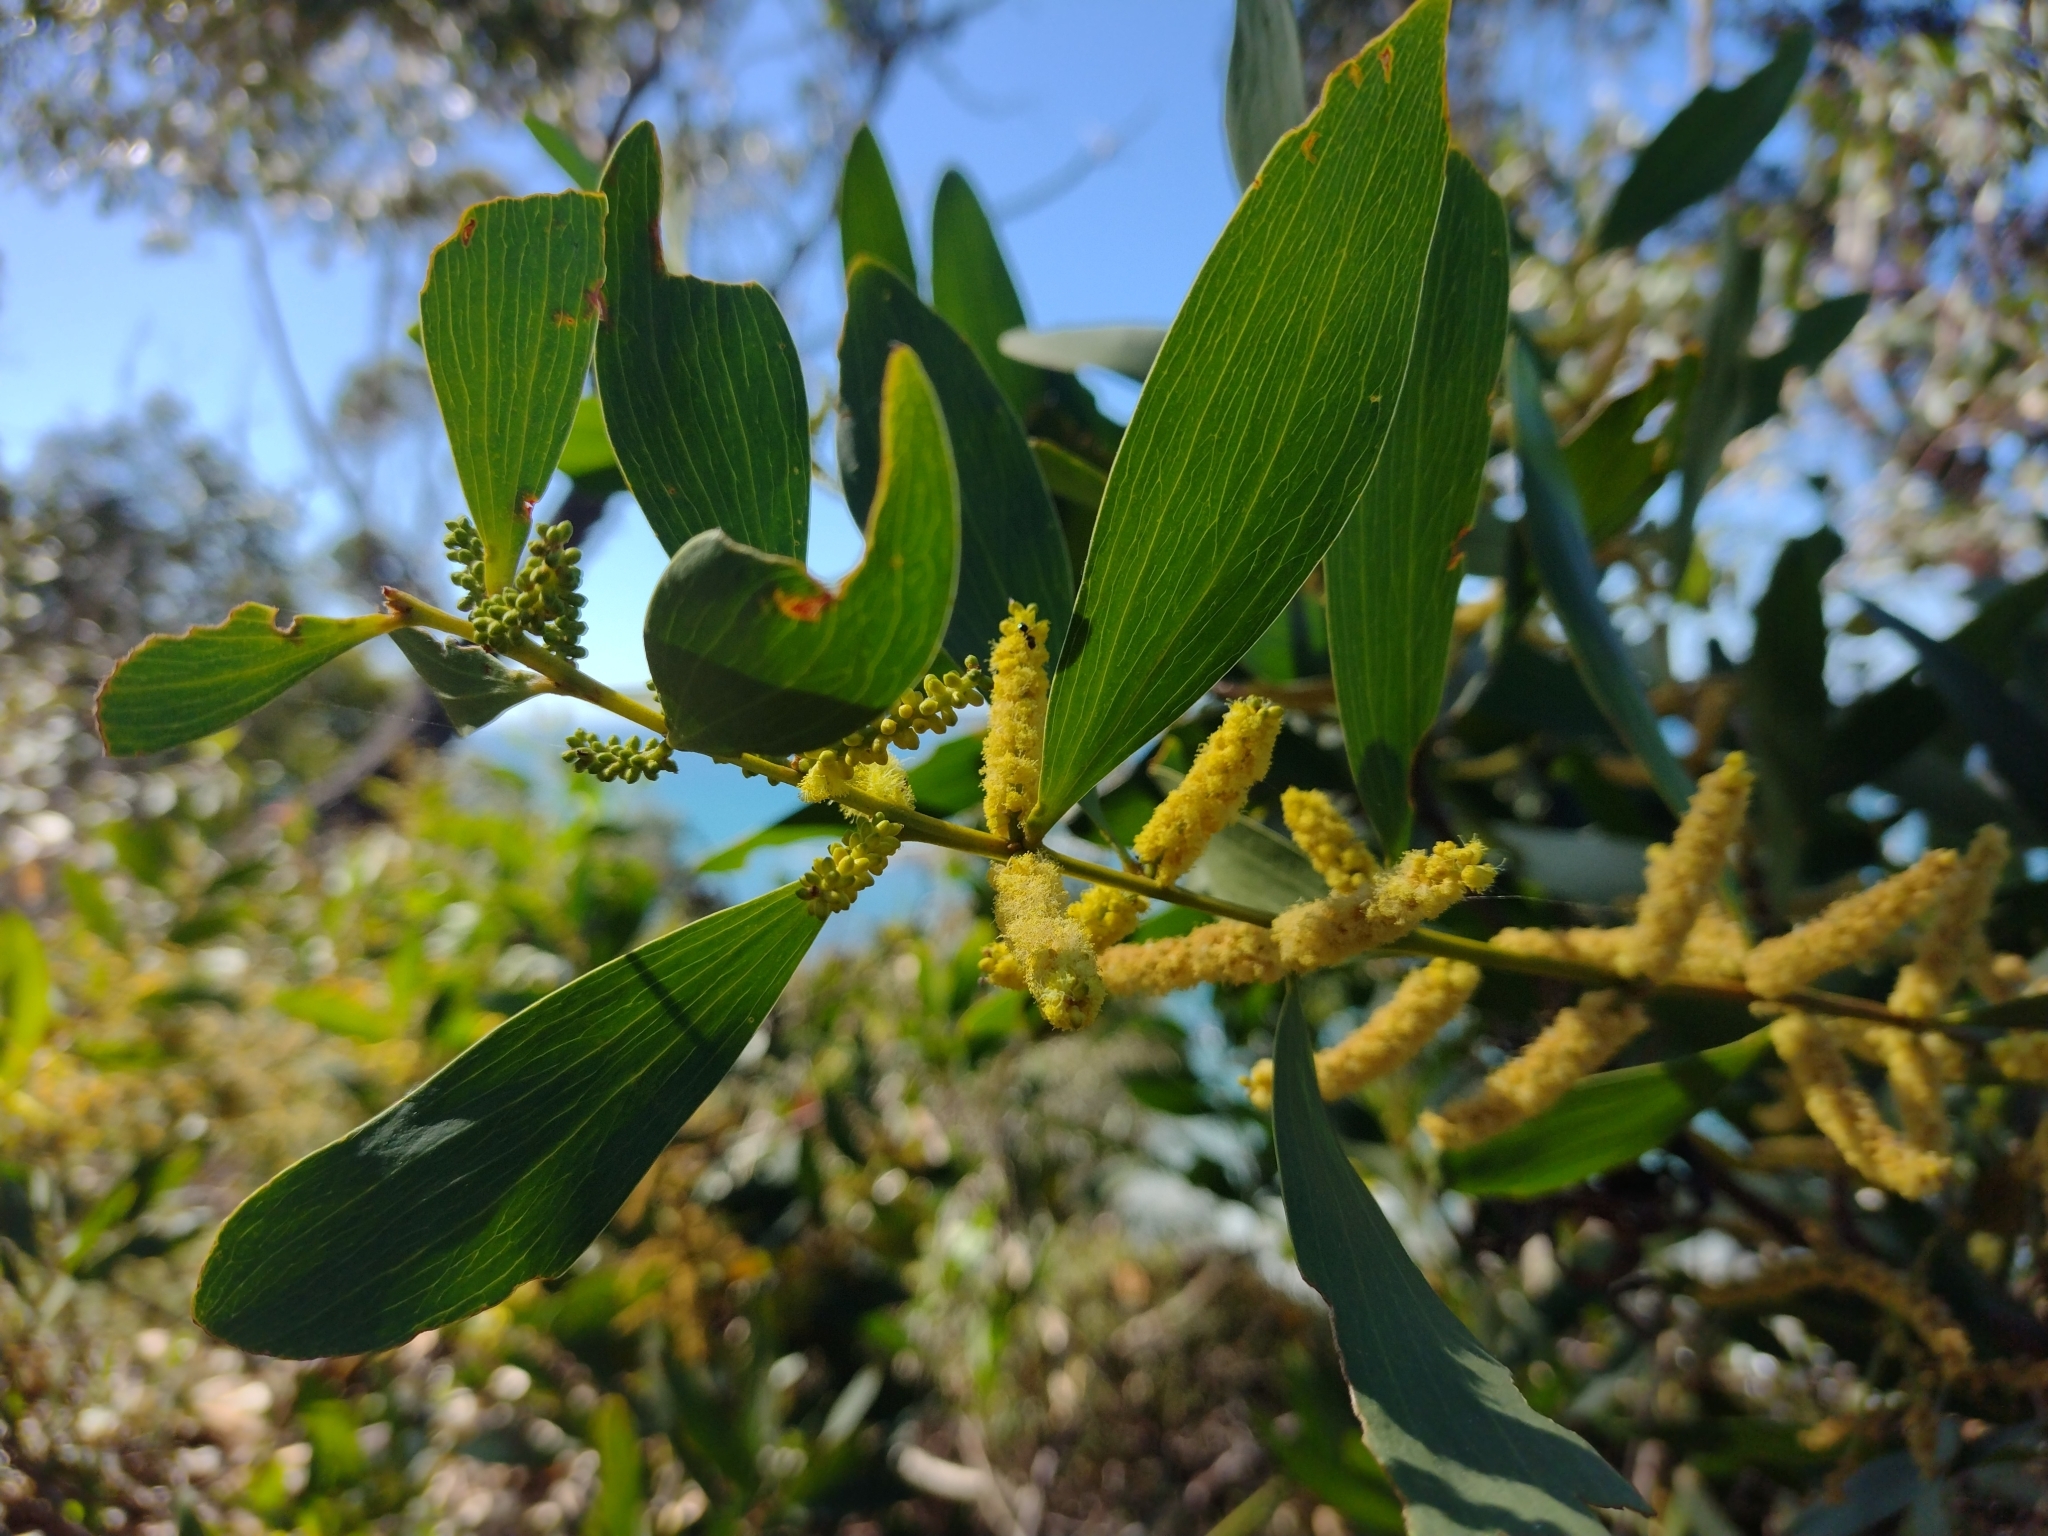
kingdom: Plantae
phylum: Tracheophyta
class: Magnoliopsida
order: Fabales
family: Fabaceae
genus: Acacia
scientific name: Acacia longifolia
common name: Sydney golden wattle
